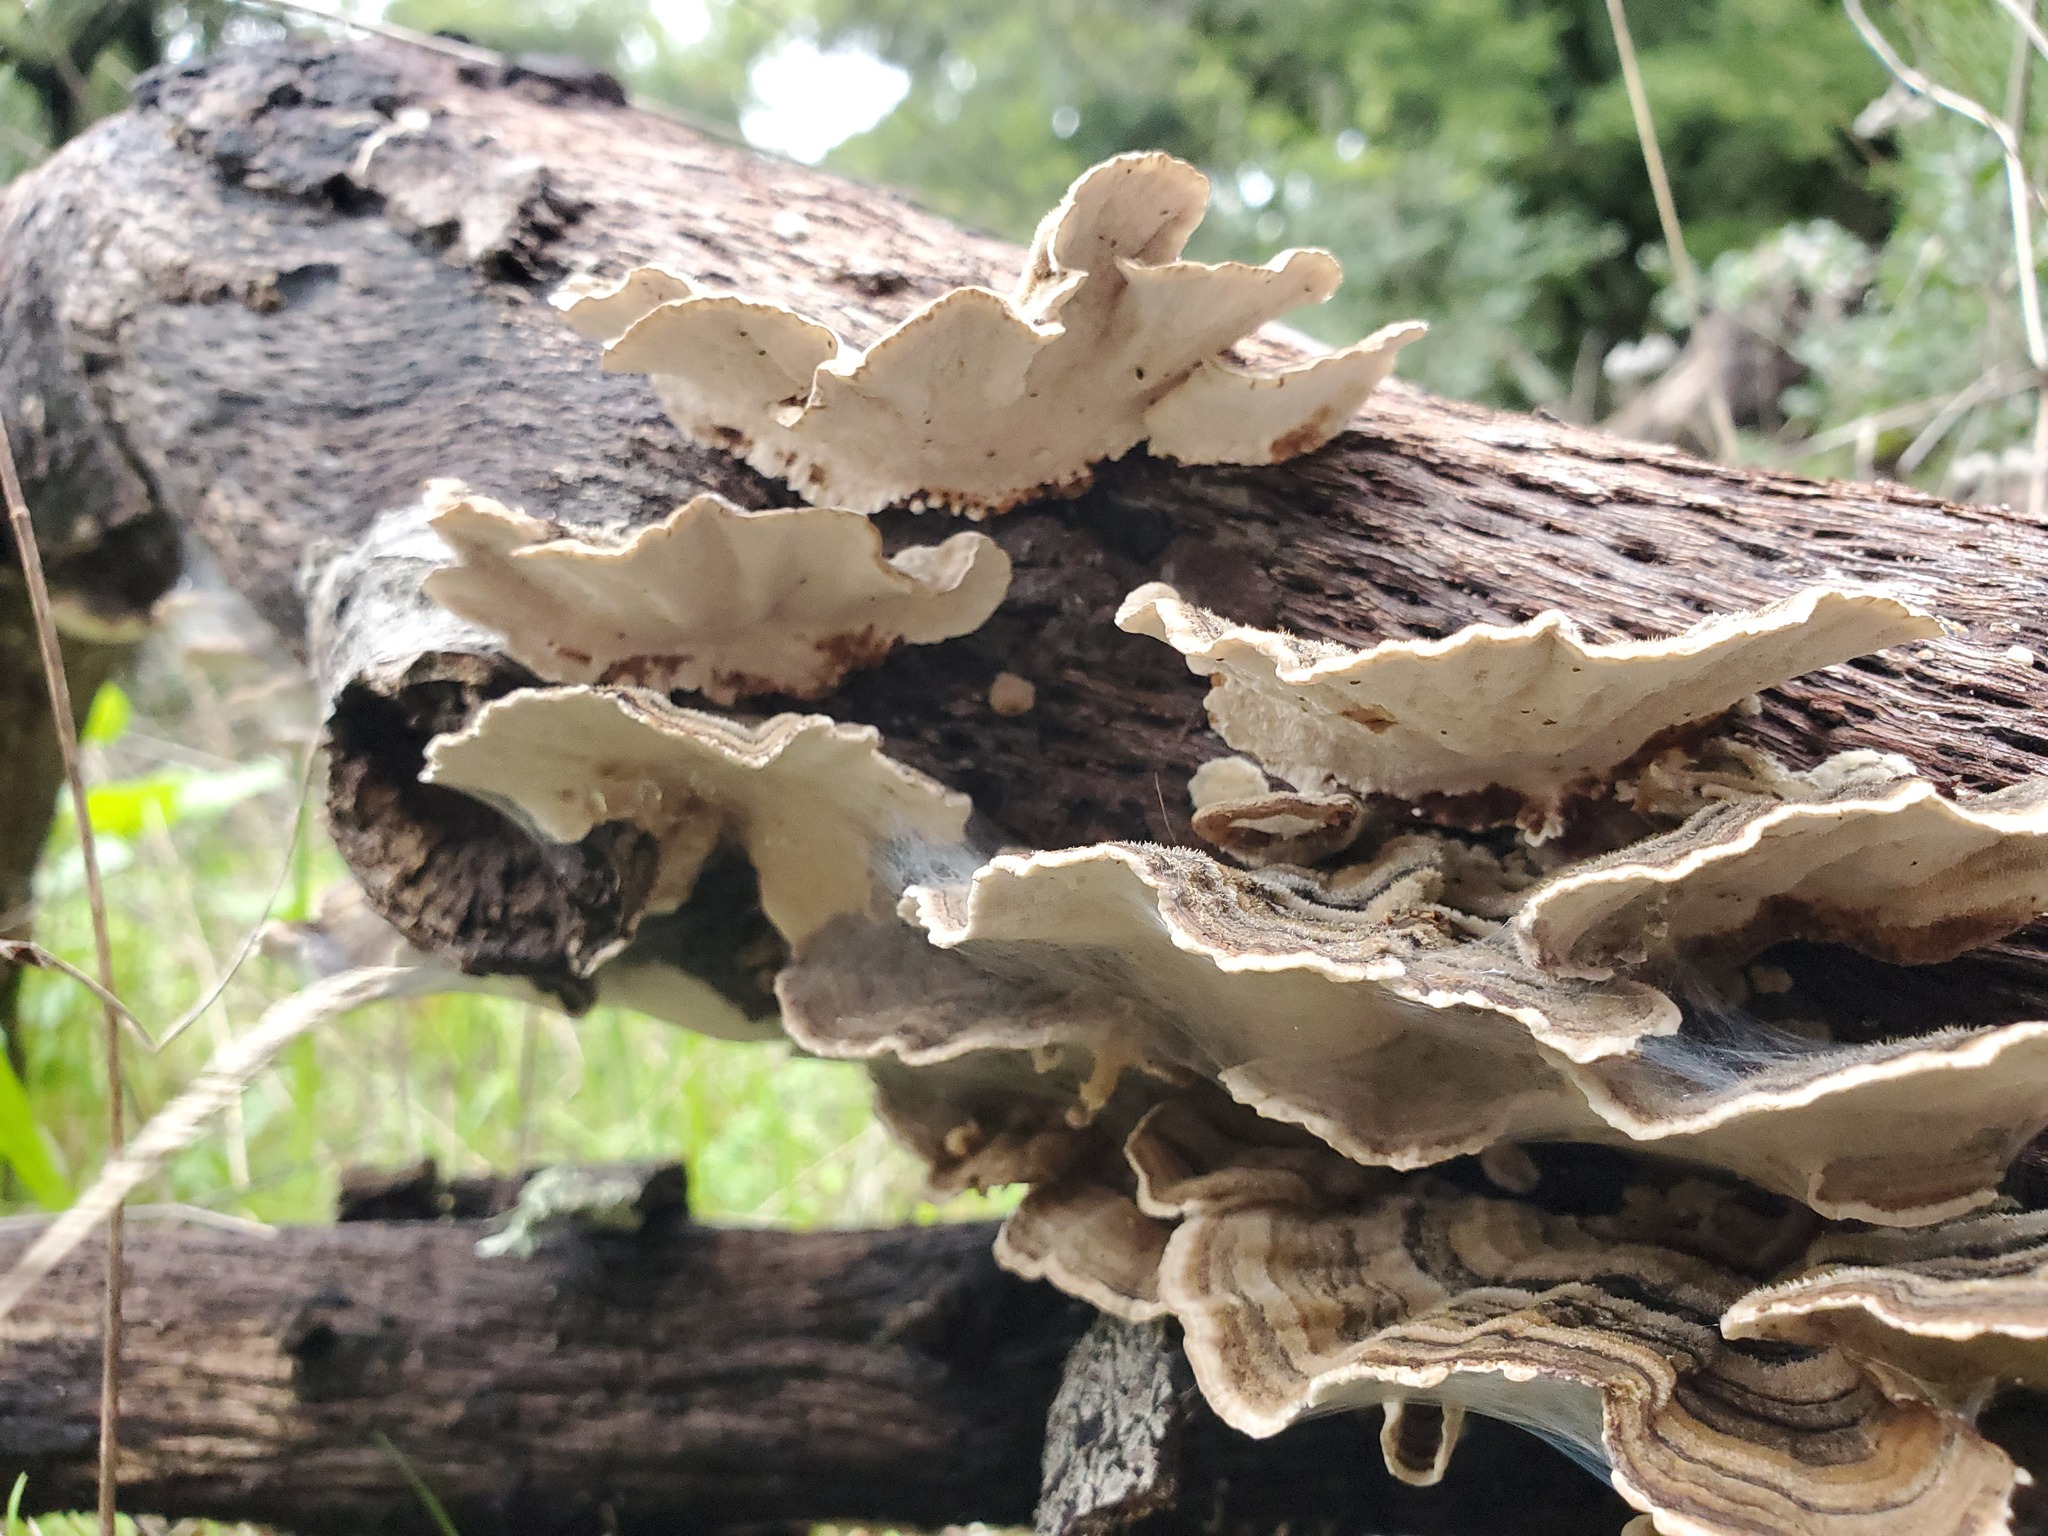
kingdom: Fungi
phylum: Basidiomycota
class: Agaricomycetes
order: Polyporales
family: Polyporaceae
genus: Trametes
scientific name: Trametes versicolor
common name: Turkeytail
